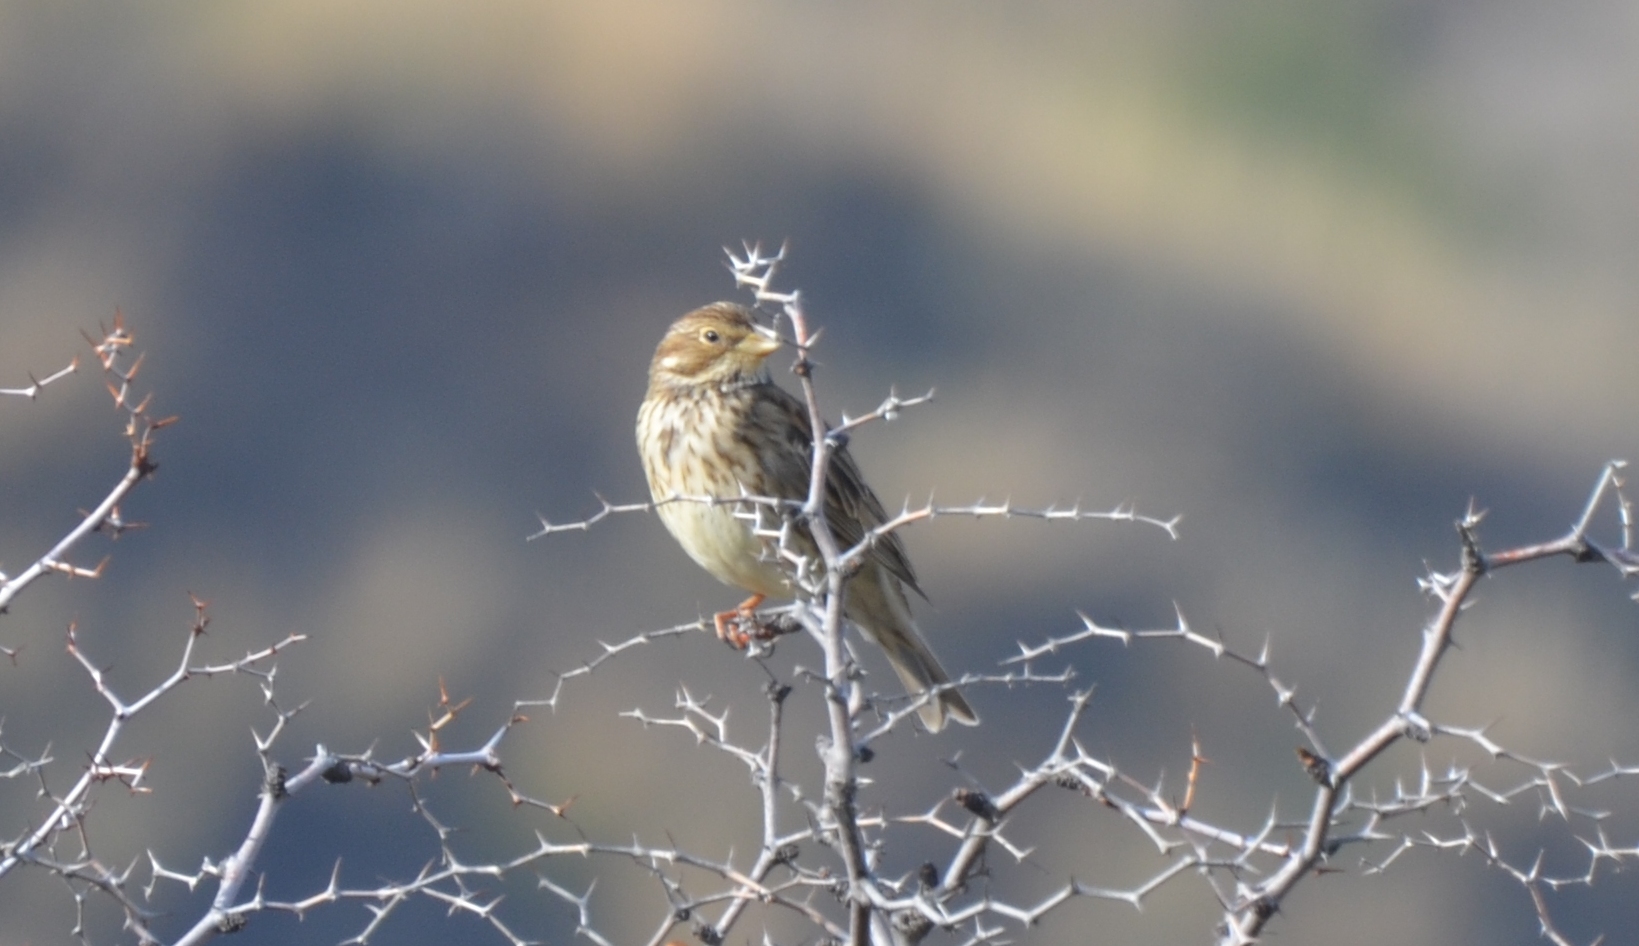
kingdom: Animalia
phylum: Chordata
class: Aves
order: Passeriformes
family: Emberizidae
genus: Emberiza
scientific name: Emberiza calandra
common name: Corn bunting
